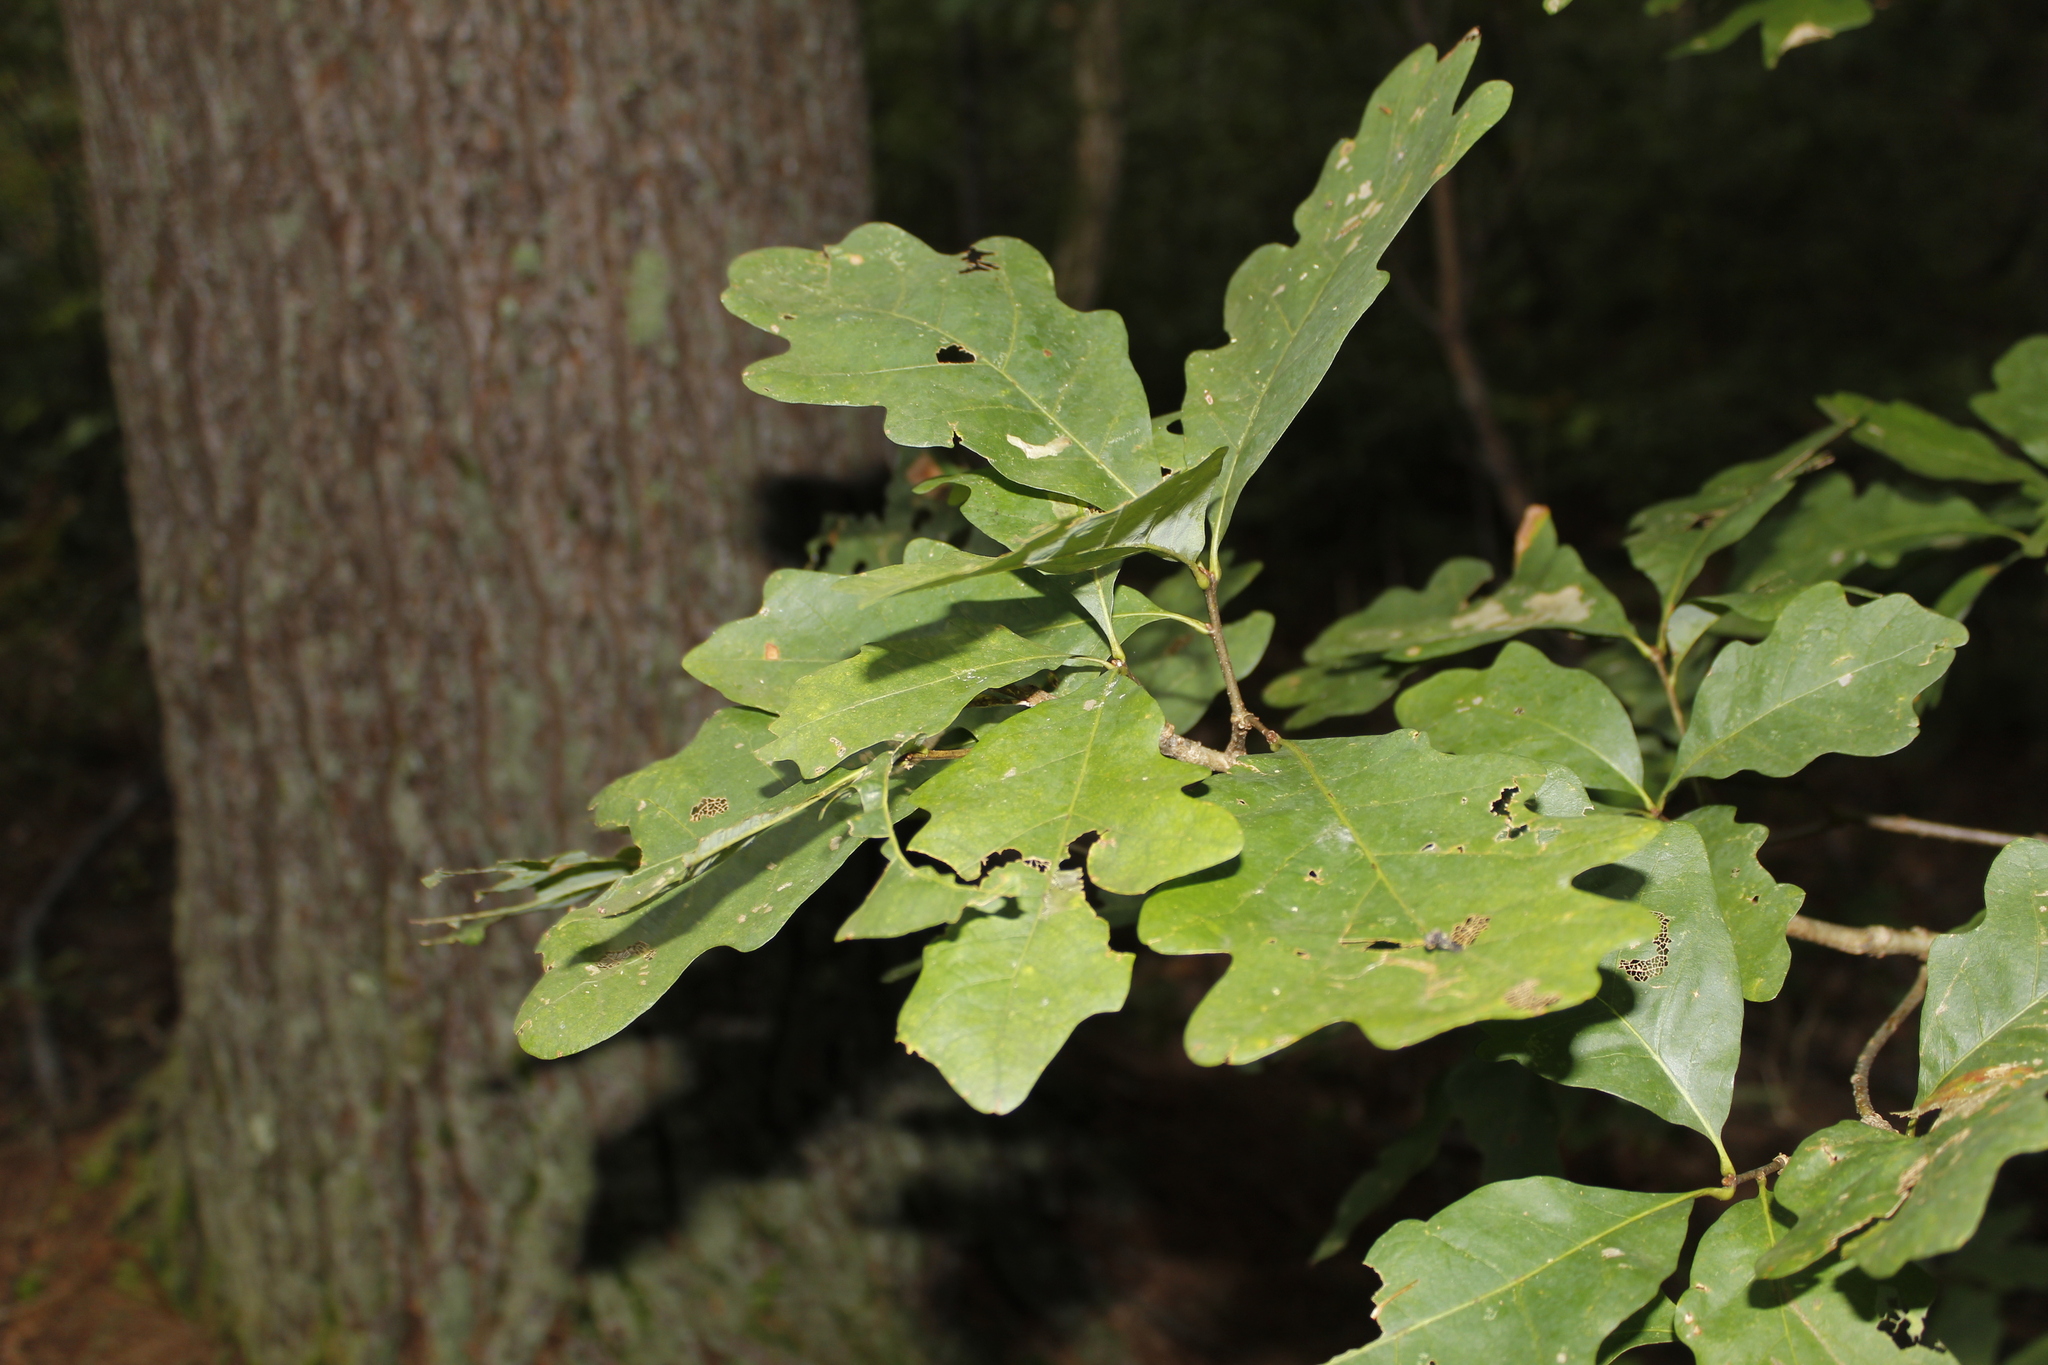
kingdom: Plantae
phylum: Tracheophyta
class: Magnoliopsida
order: Fagales
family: Fagaceae
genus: Quercus
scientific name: Quercus alba
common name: White oak
